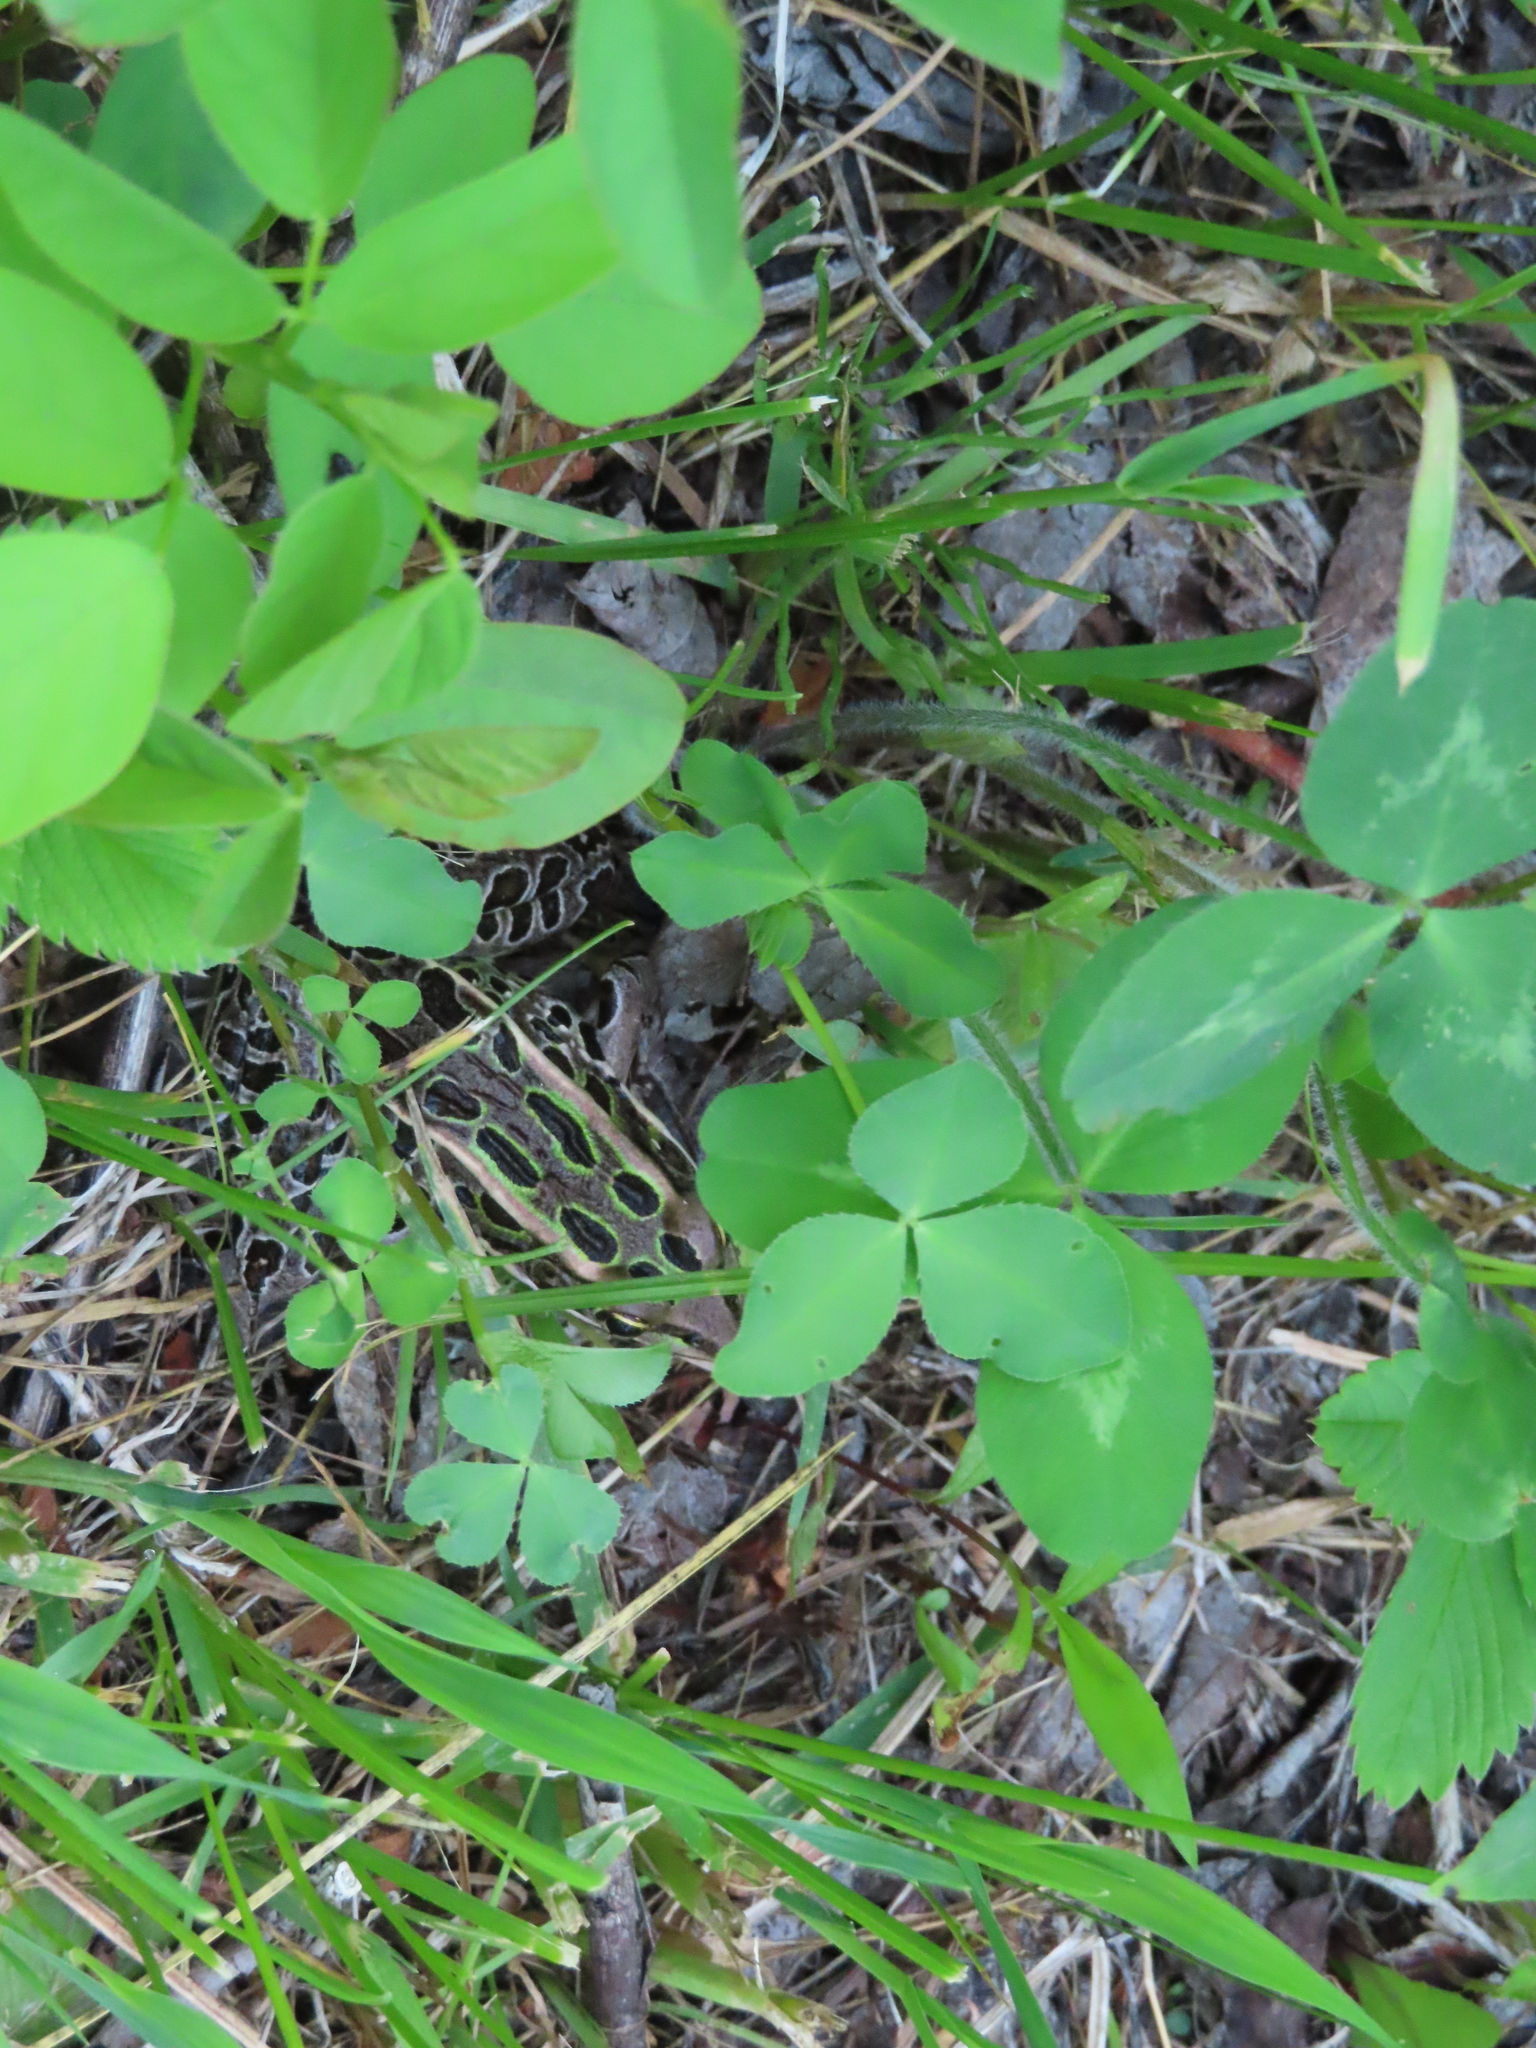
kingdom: Animalia
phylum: Chordata
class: Amphibia
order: Anura
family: Ranidae
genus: Lithobates
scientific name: Lithobates pipiens
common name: Northern leopard frog
